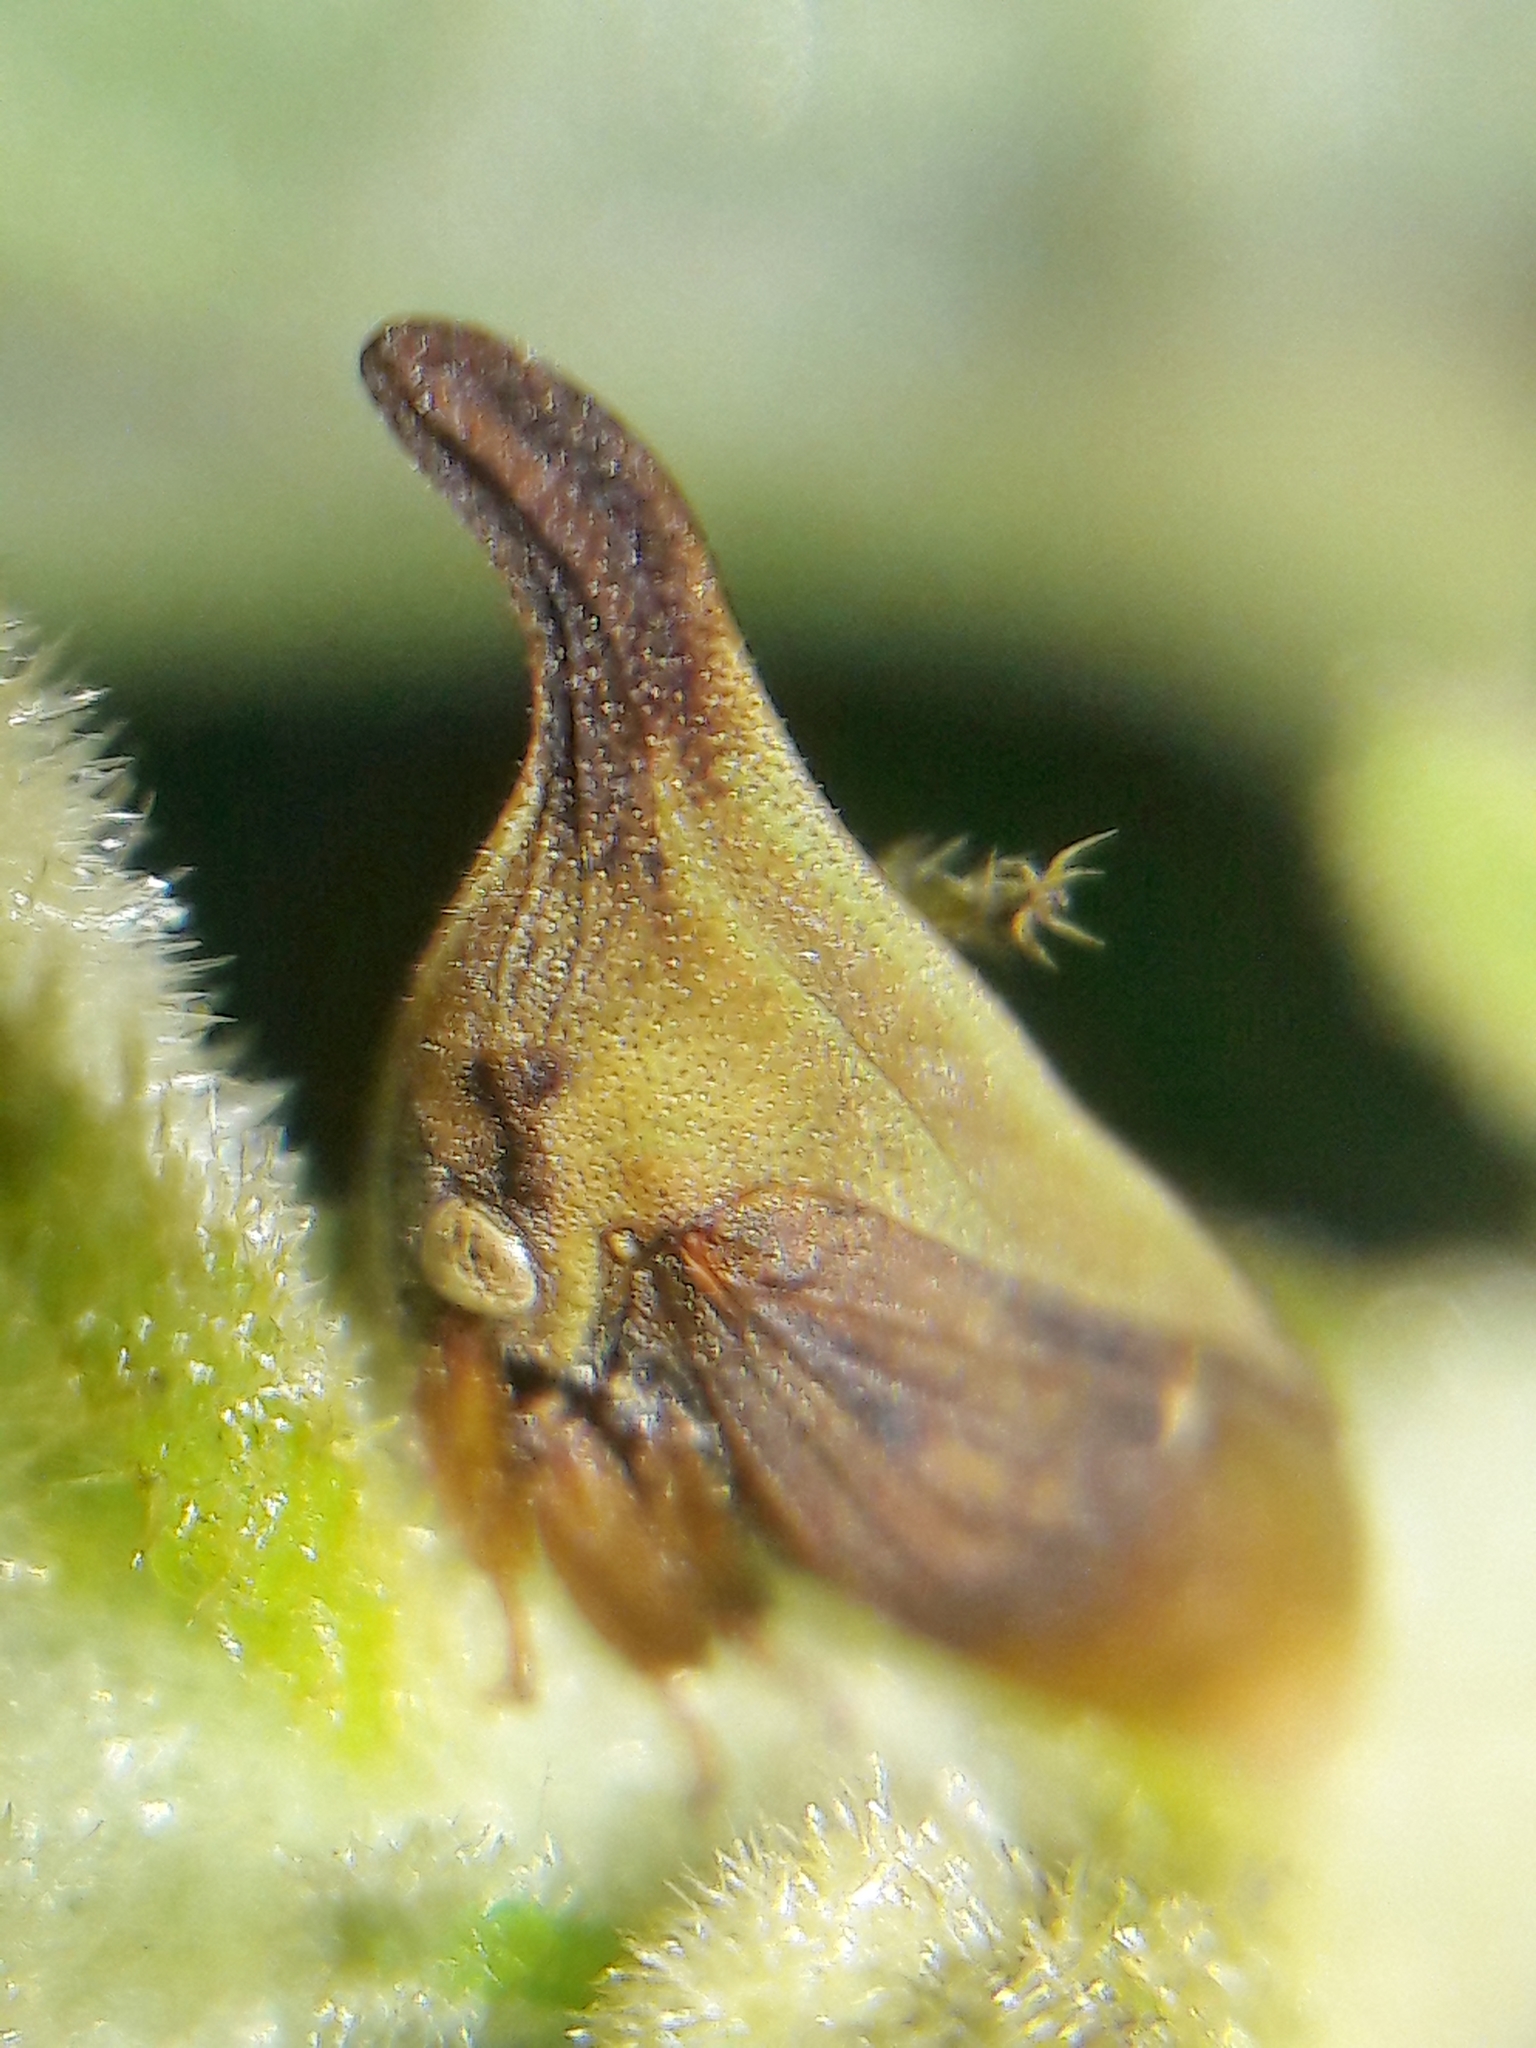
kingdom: Animalia
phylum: Arthropoda
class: Insecta
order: Hemiptera
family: Membracidae
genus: Enchenopa
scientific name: Enchenopa gracilis
